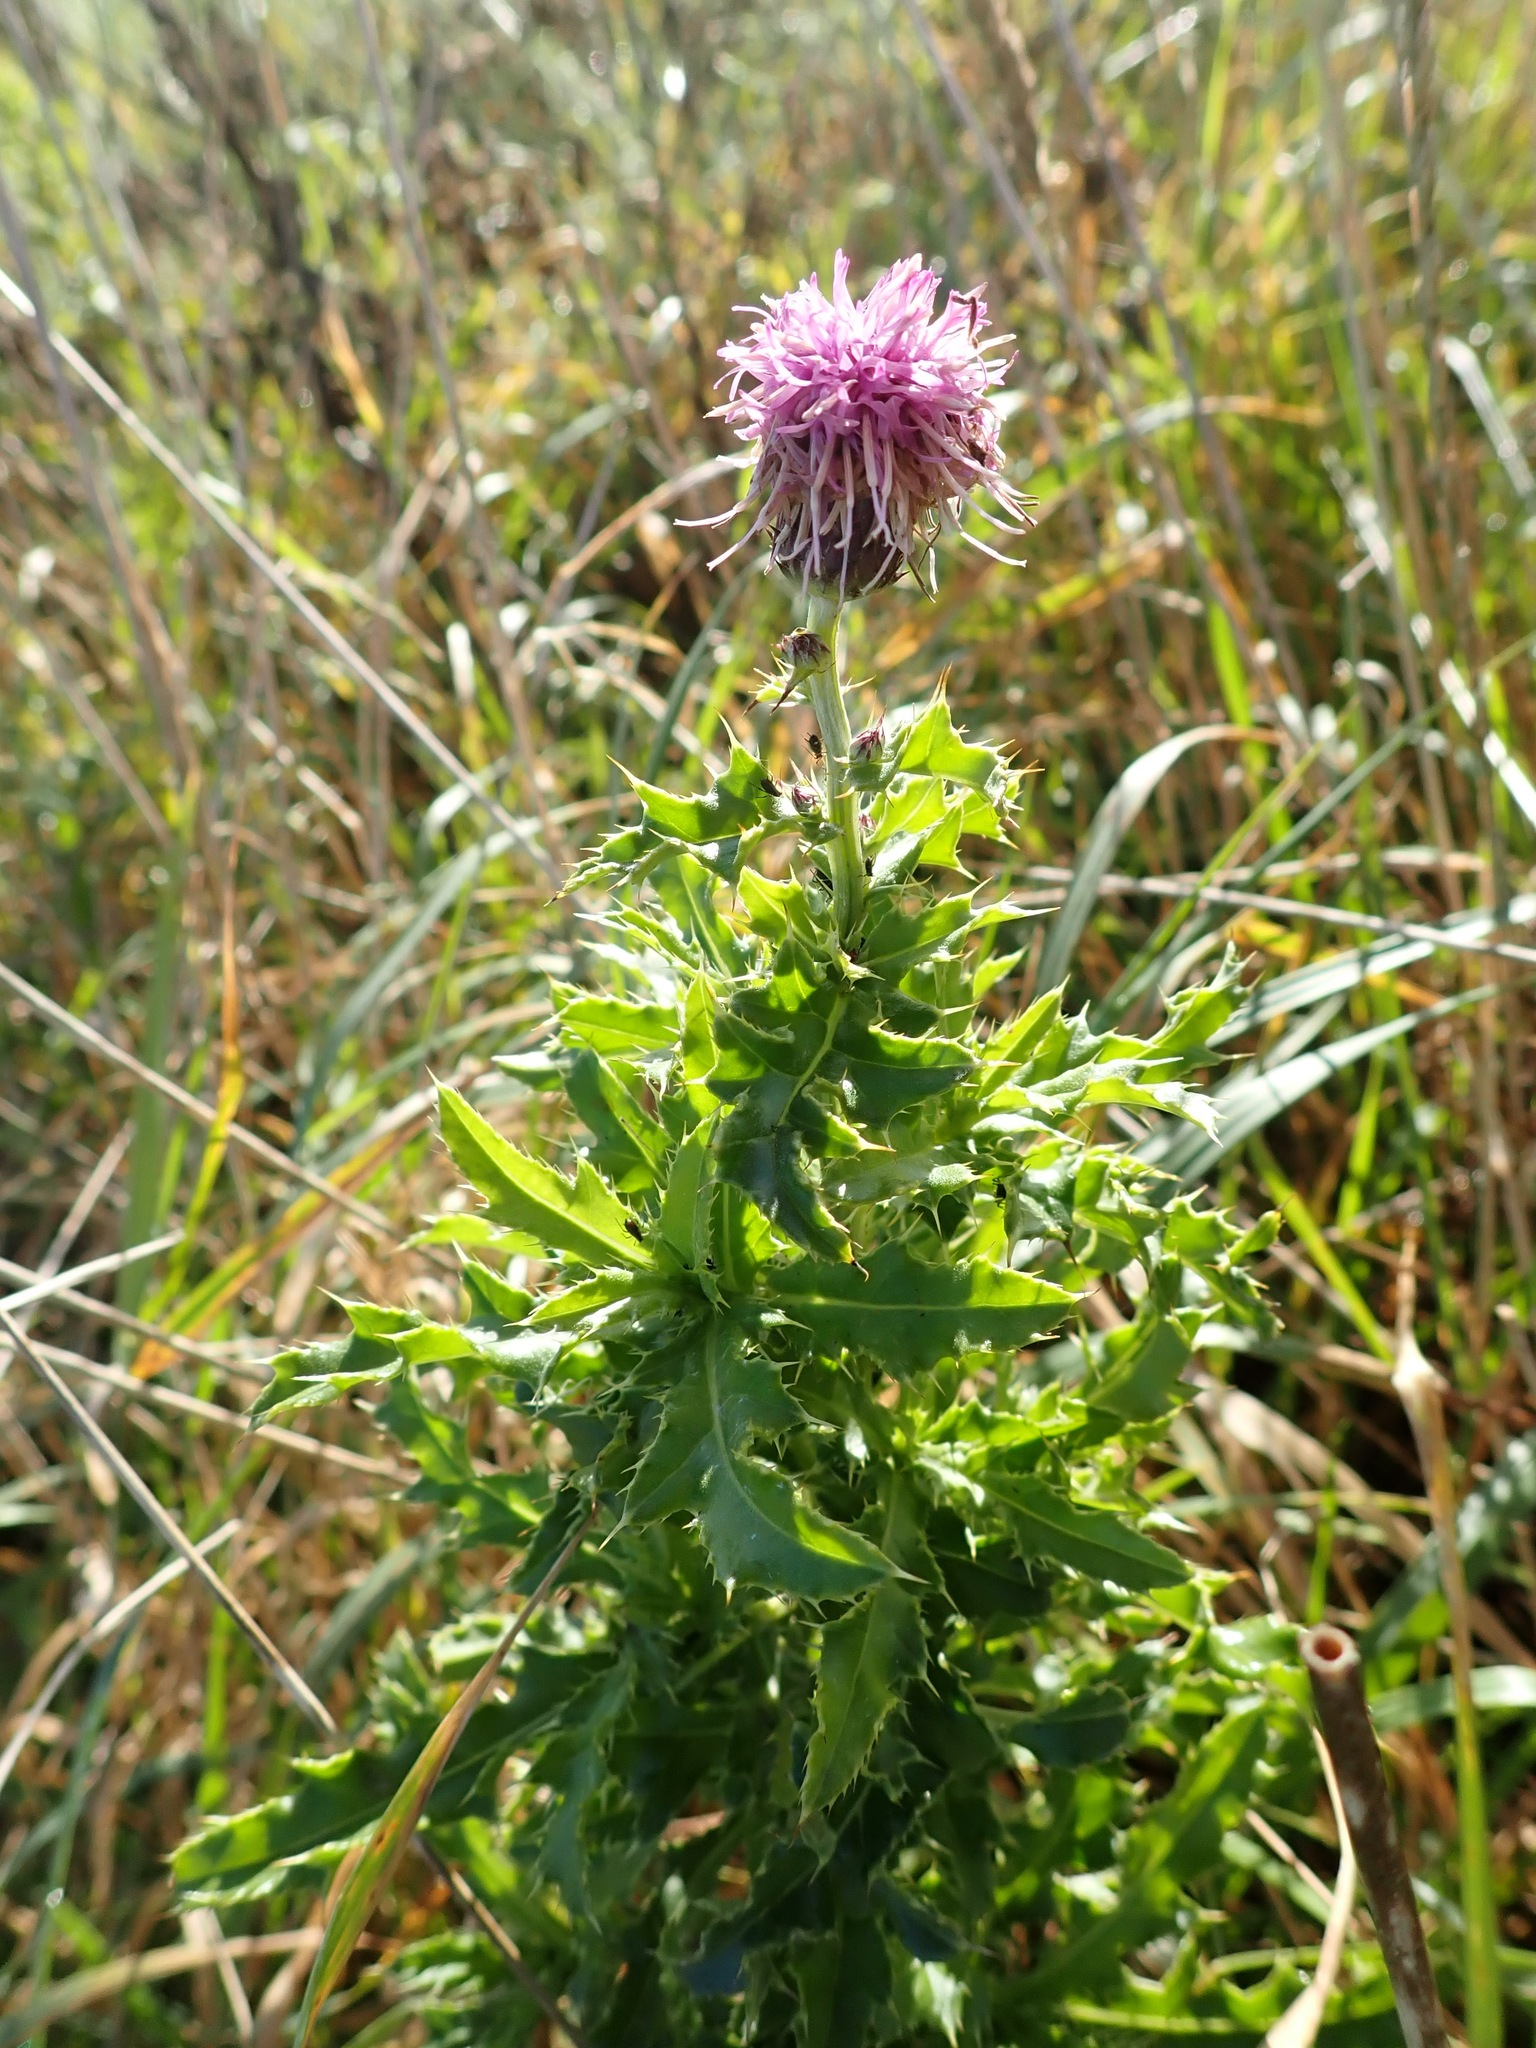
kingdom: Plantae
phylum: Tracheophyta
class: Magnoliopsida
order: Asterales
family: Asteraceae
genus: Cirsium
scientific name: Cirsium arvense
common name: Creeping thistle
